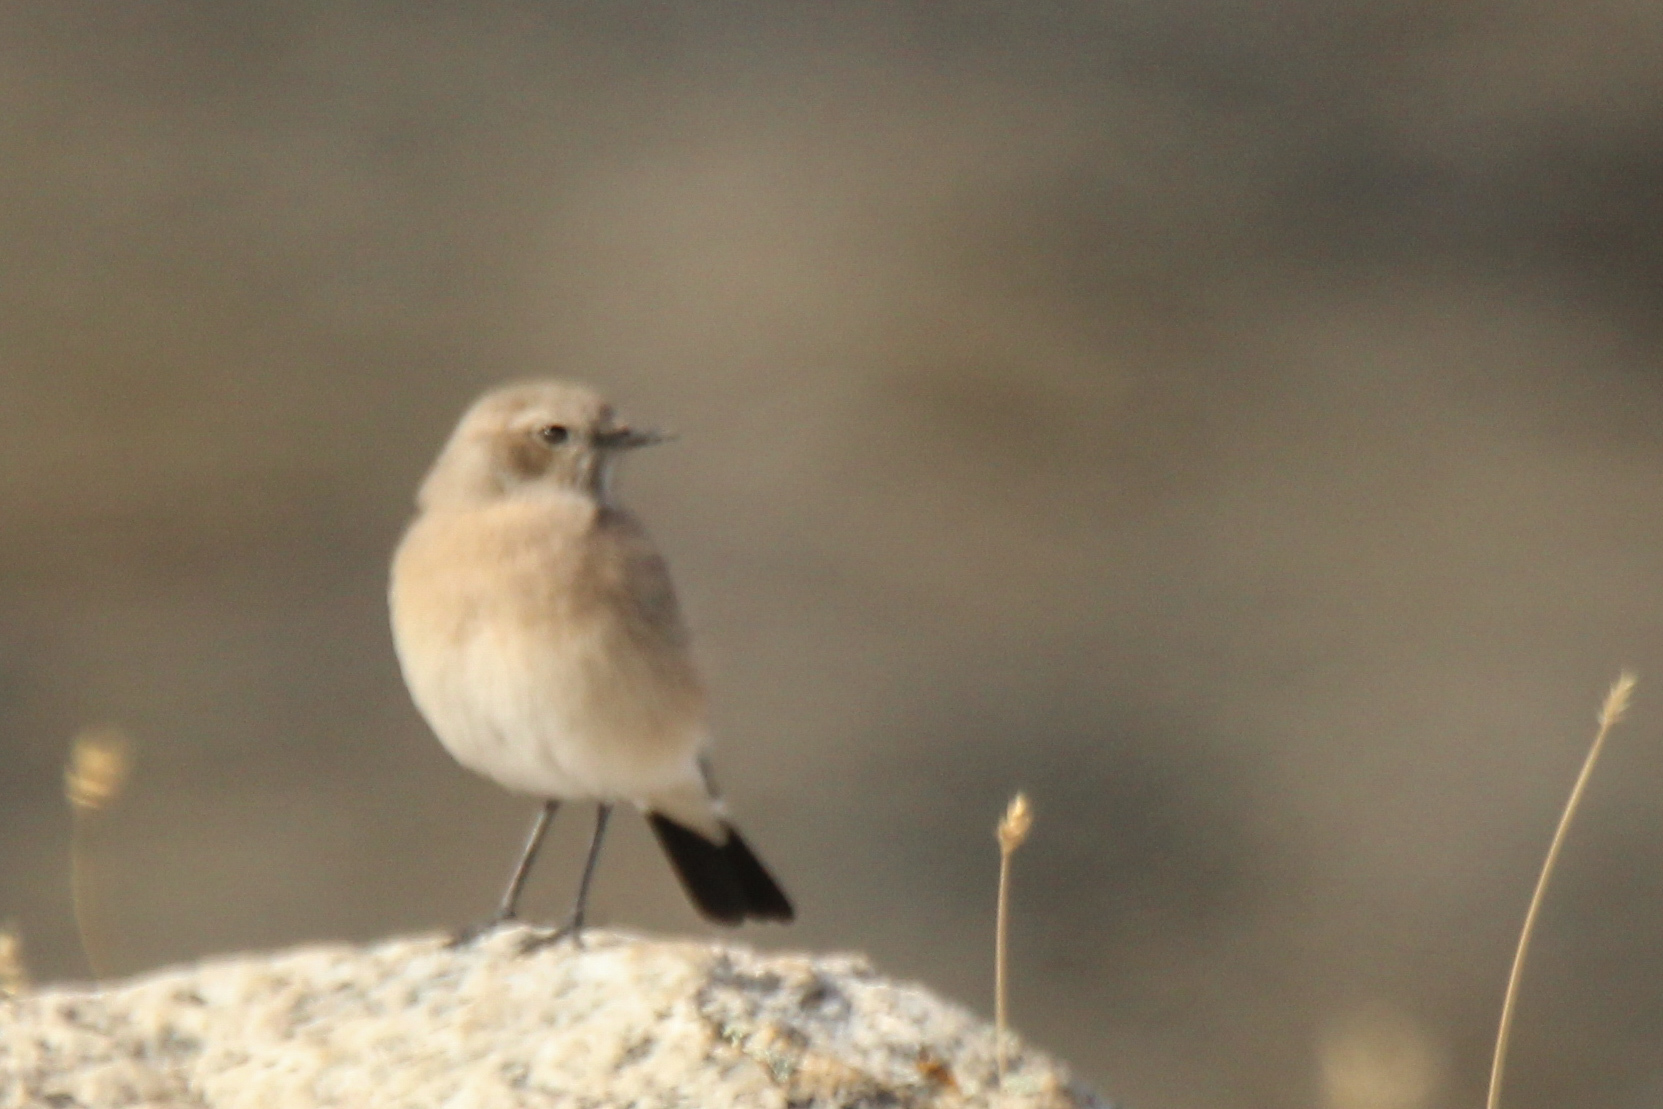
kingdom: Animalia
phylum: Chordata
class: Aves
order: Passeriformes
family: Muscicapidae
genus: Oenanthe
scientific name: Oenanthe deserti
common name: Desert wheatear
